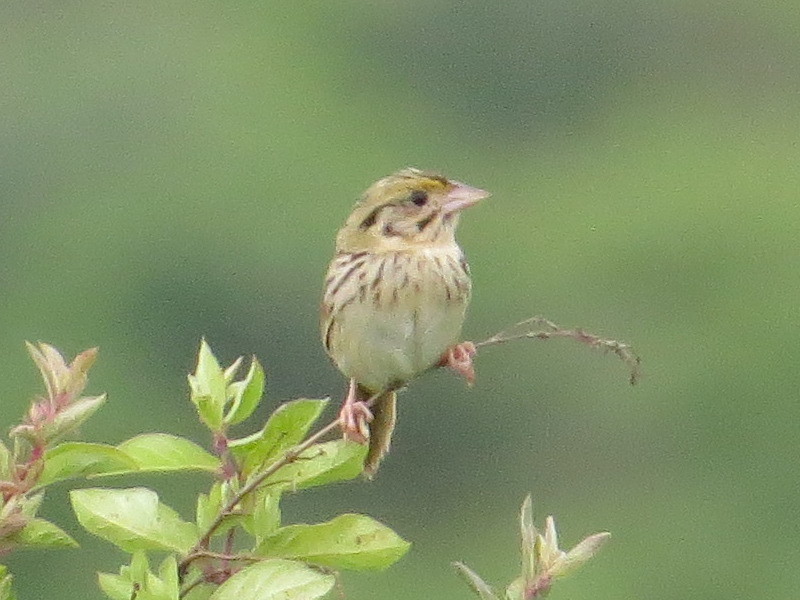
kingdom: Animalia
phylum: Chordata
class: Aves
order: Passeriformes
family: Passerellidae
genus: Centronyx
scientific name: Centronyx henslowii
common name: Henslow's sparrow
